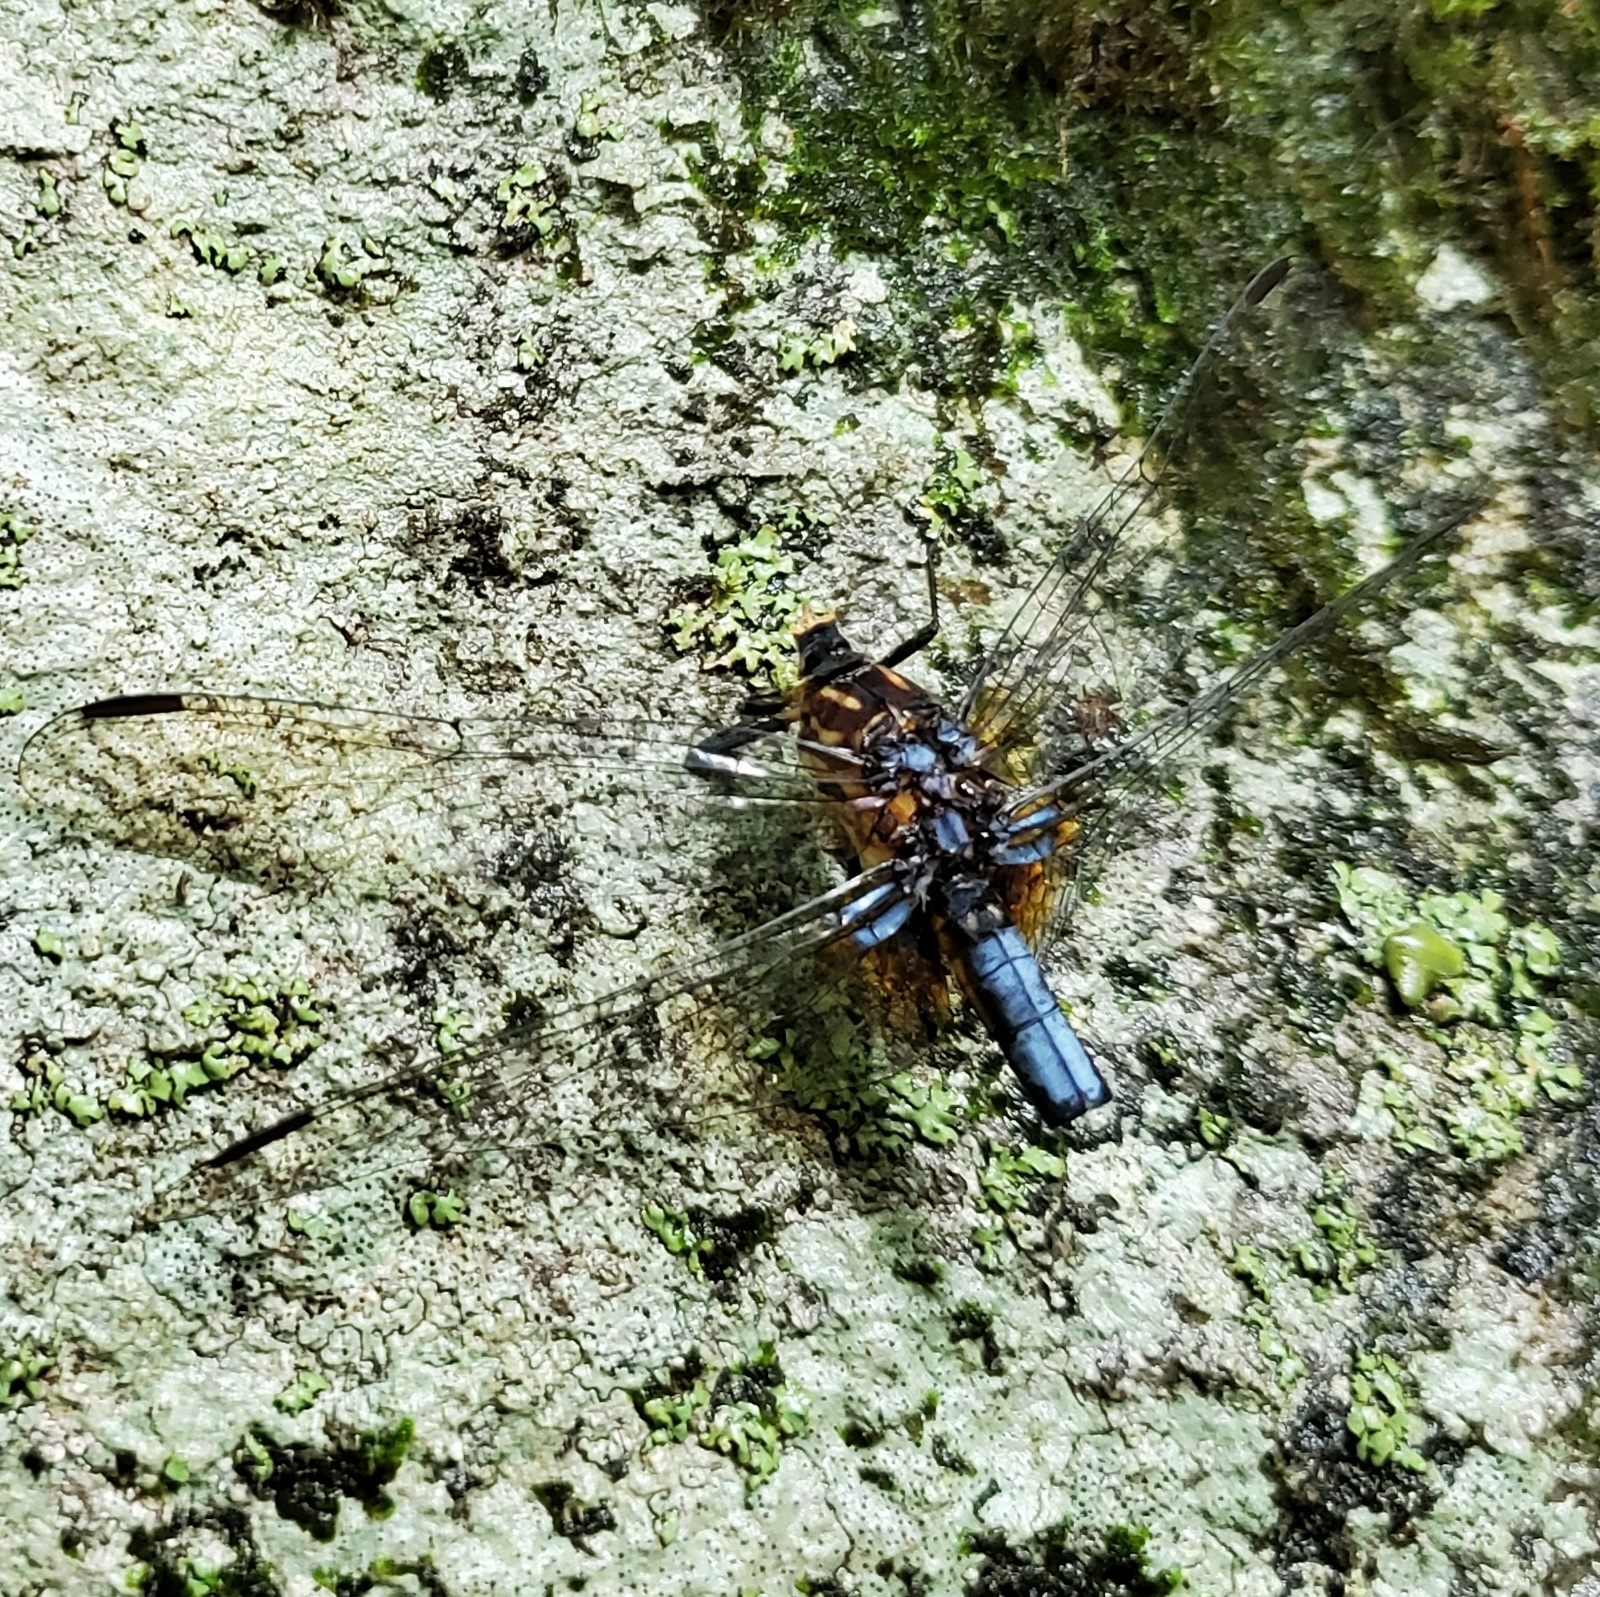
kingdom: Animalia
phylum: Arthropoda
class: Insecta
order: Odonata
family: Libellulidae
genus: Pachydiplax
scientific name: Pachydiplax longipennis
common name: Blue dasher
